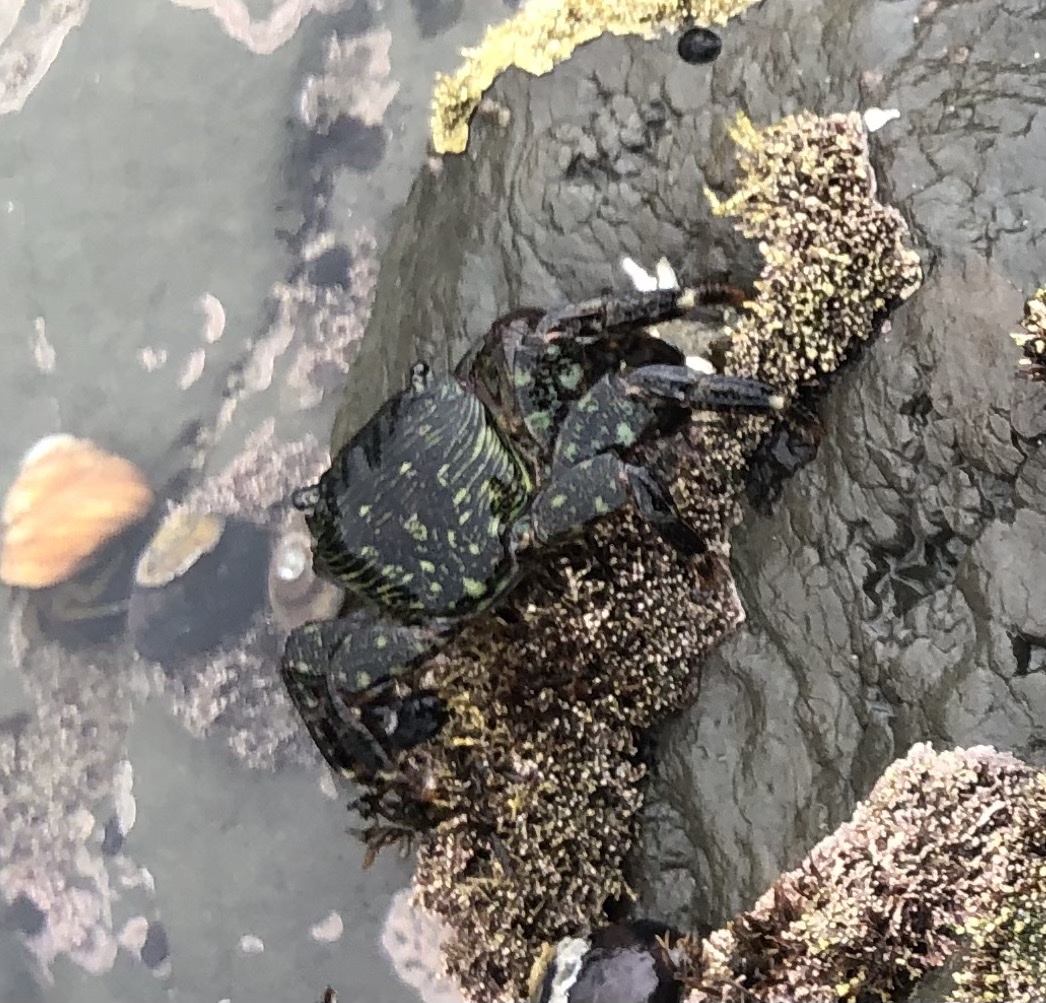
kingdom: Animalia
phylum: Arthropoda
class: Malacostraca
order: Decapoda
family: Grapsidae
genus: Pachygrapsus
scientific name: Pachygrapsus crassipes
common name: Striped shore crab
